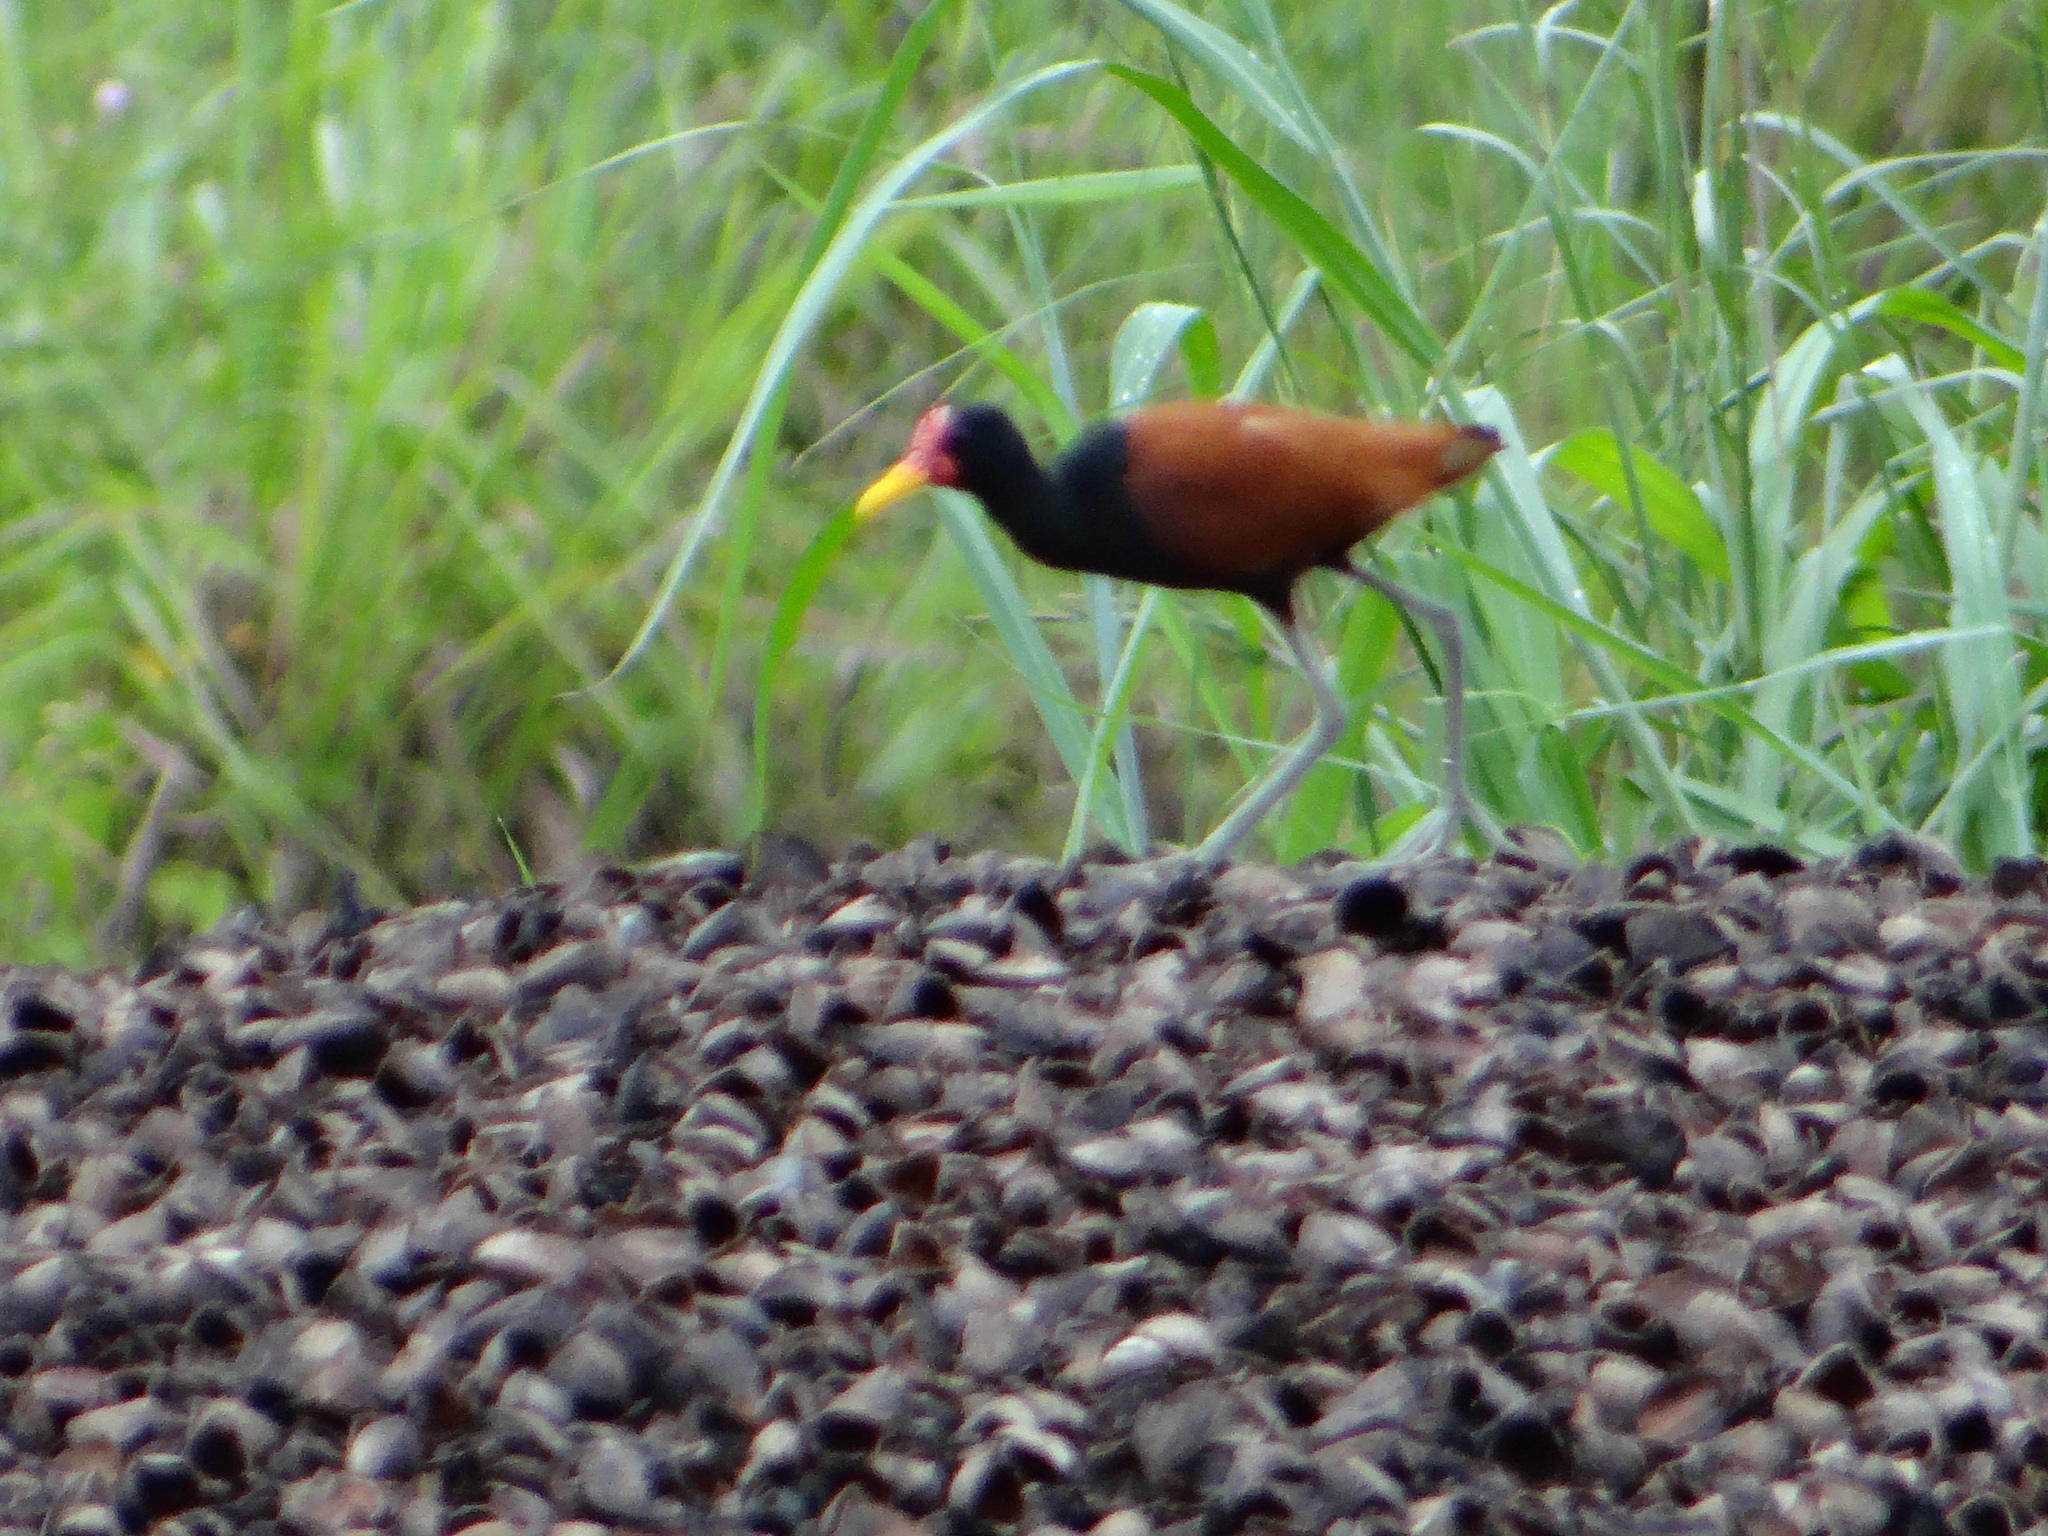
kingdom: Animalia
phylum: Chordata
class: Aves
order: Charadriiformes
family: Jacanidae
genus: Jacana
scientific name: Jacana jacana
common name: Wattled jacana
